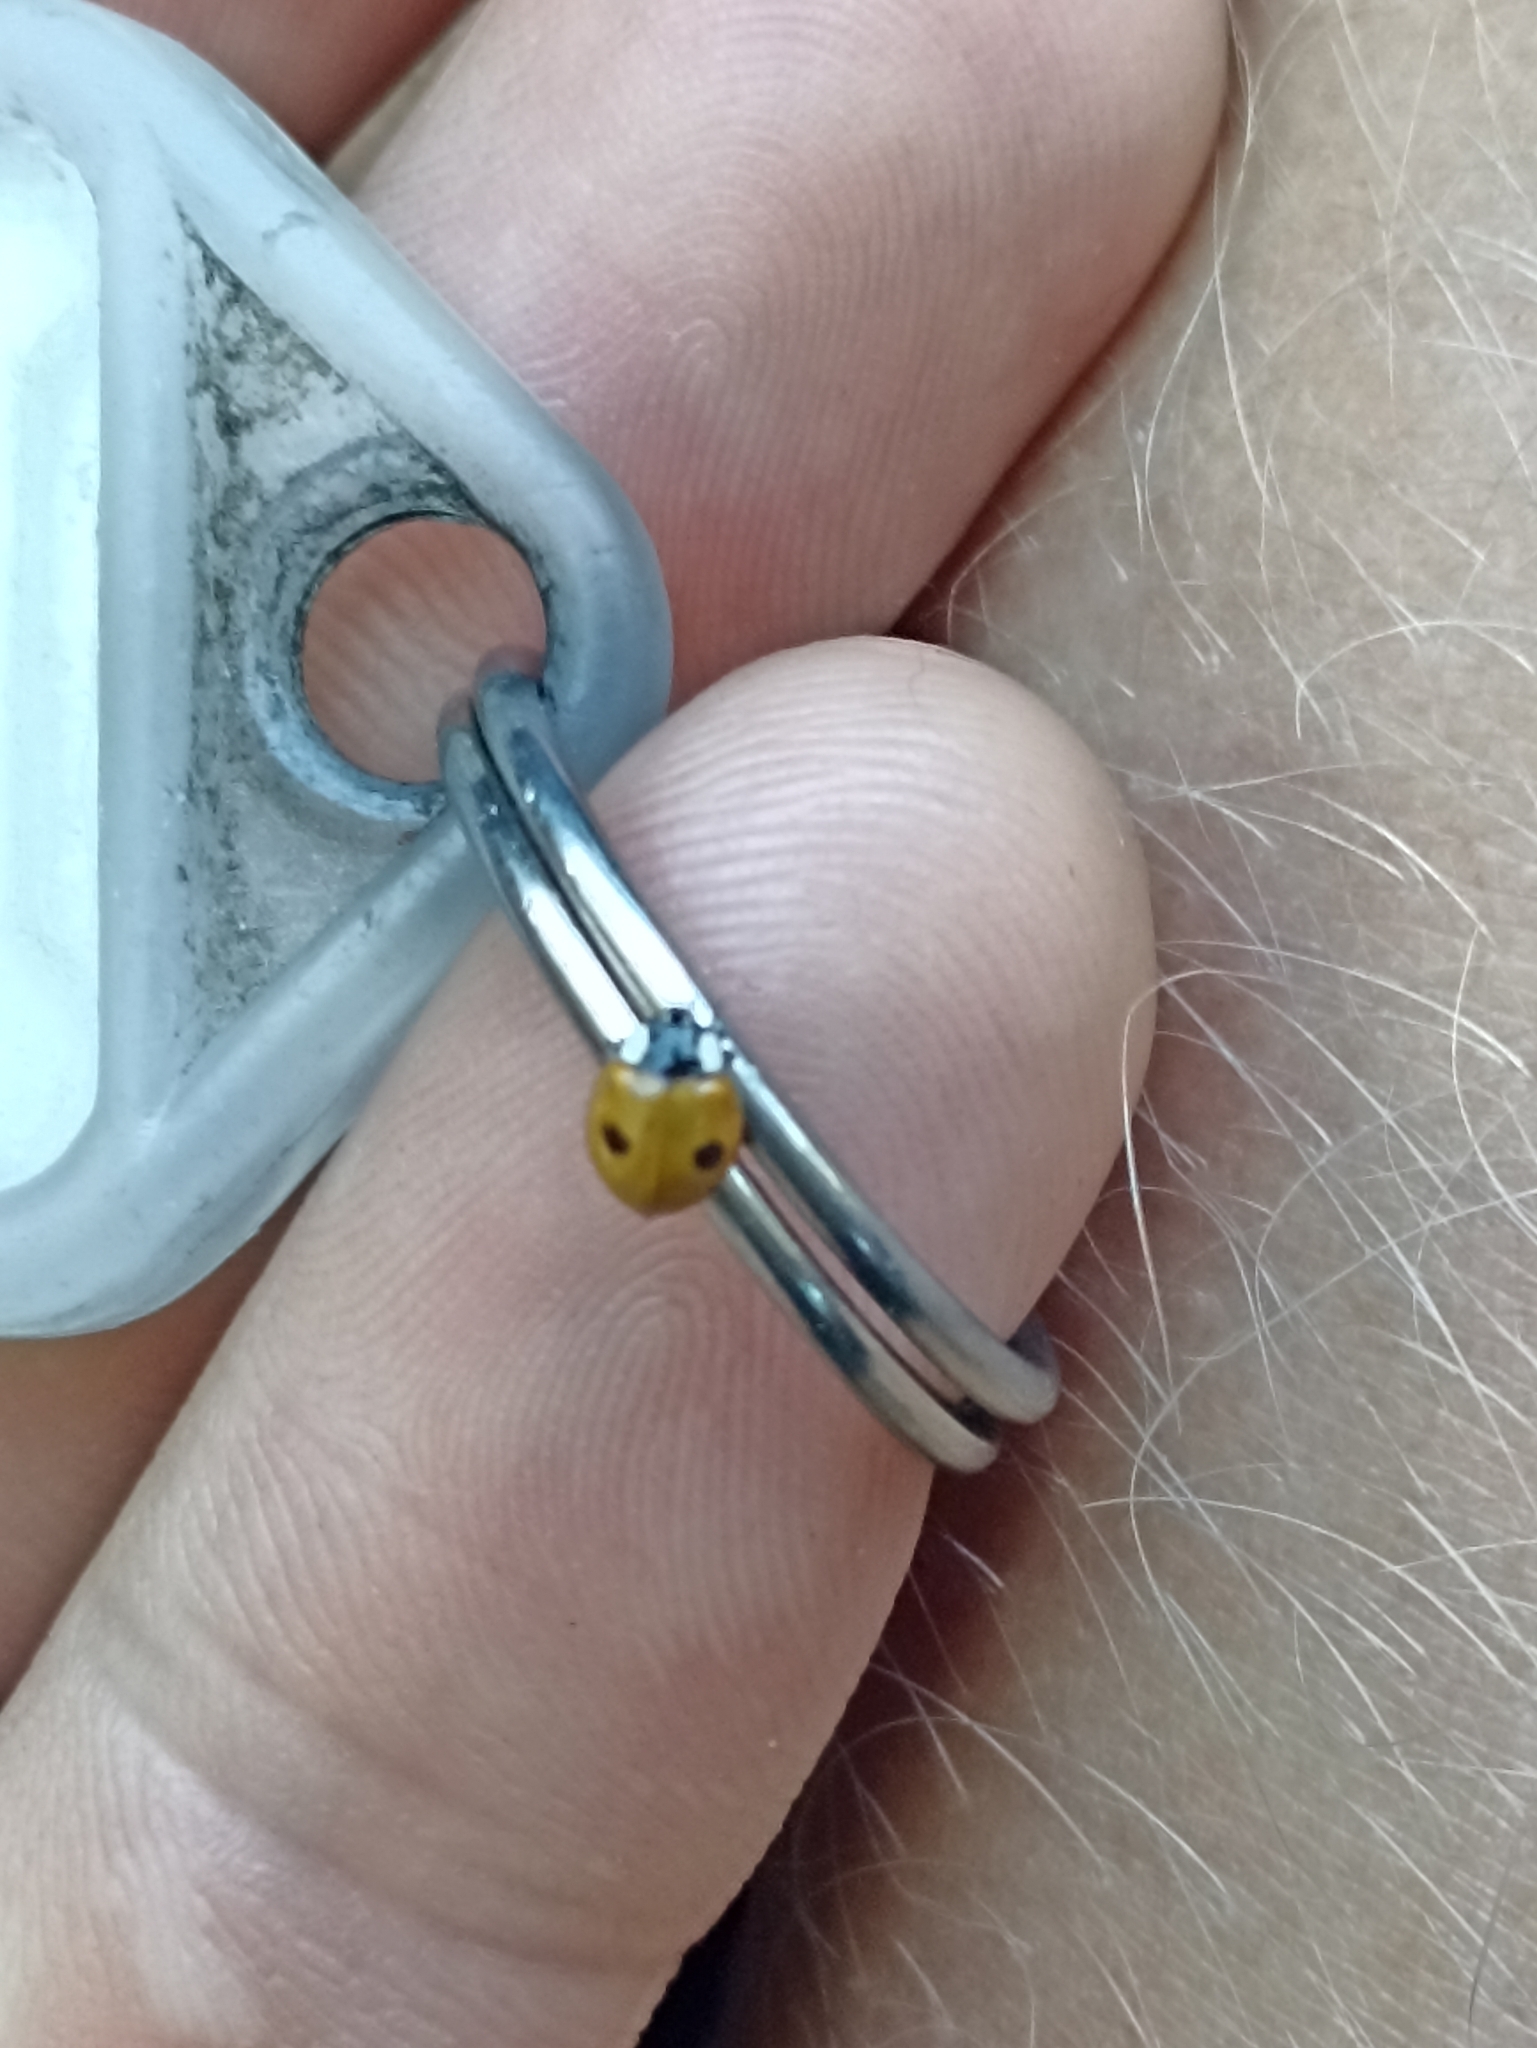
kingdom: Animalia
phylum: Arthropoda
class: Insecta
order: Coleoptera
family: Coccinellidae
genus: Adalia
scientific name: Adalia bipunctata
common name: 2-spot ladybird
